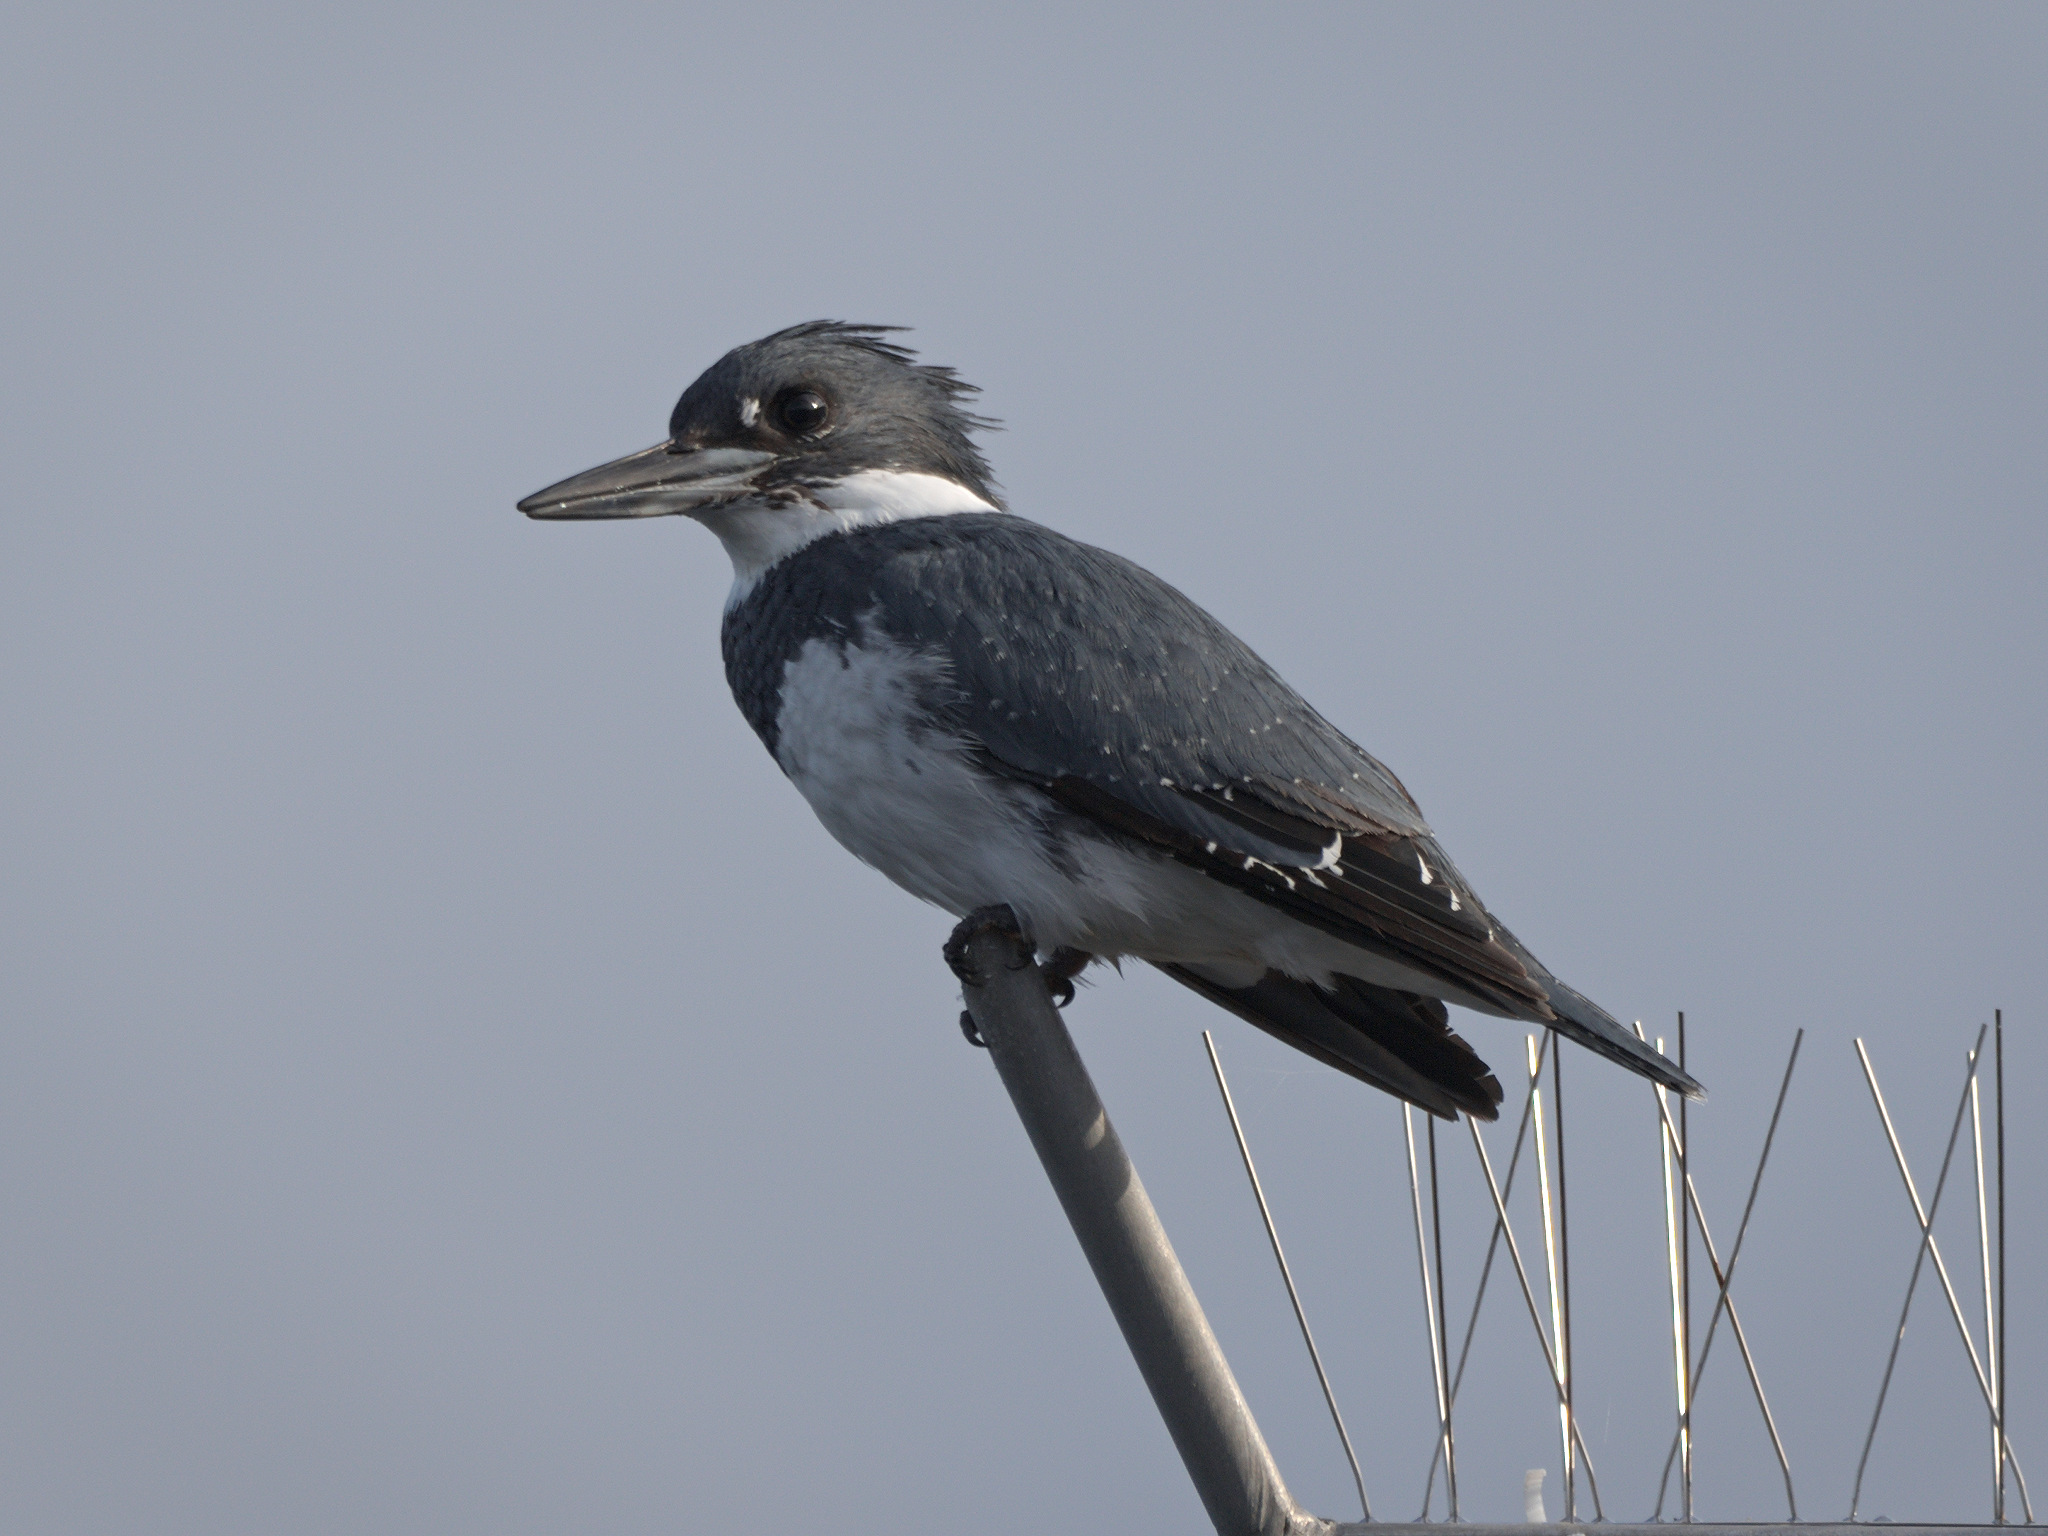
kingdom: Animalia
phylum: Chordata
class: Aves
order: Coraciiformes
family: Alcedinidae
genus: Megaceryle
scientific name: Megaceryle alcyon
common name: Belted kingfisher
